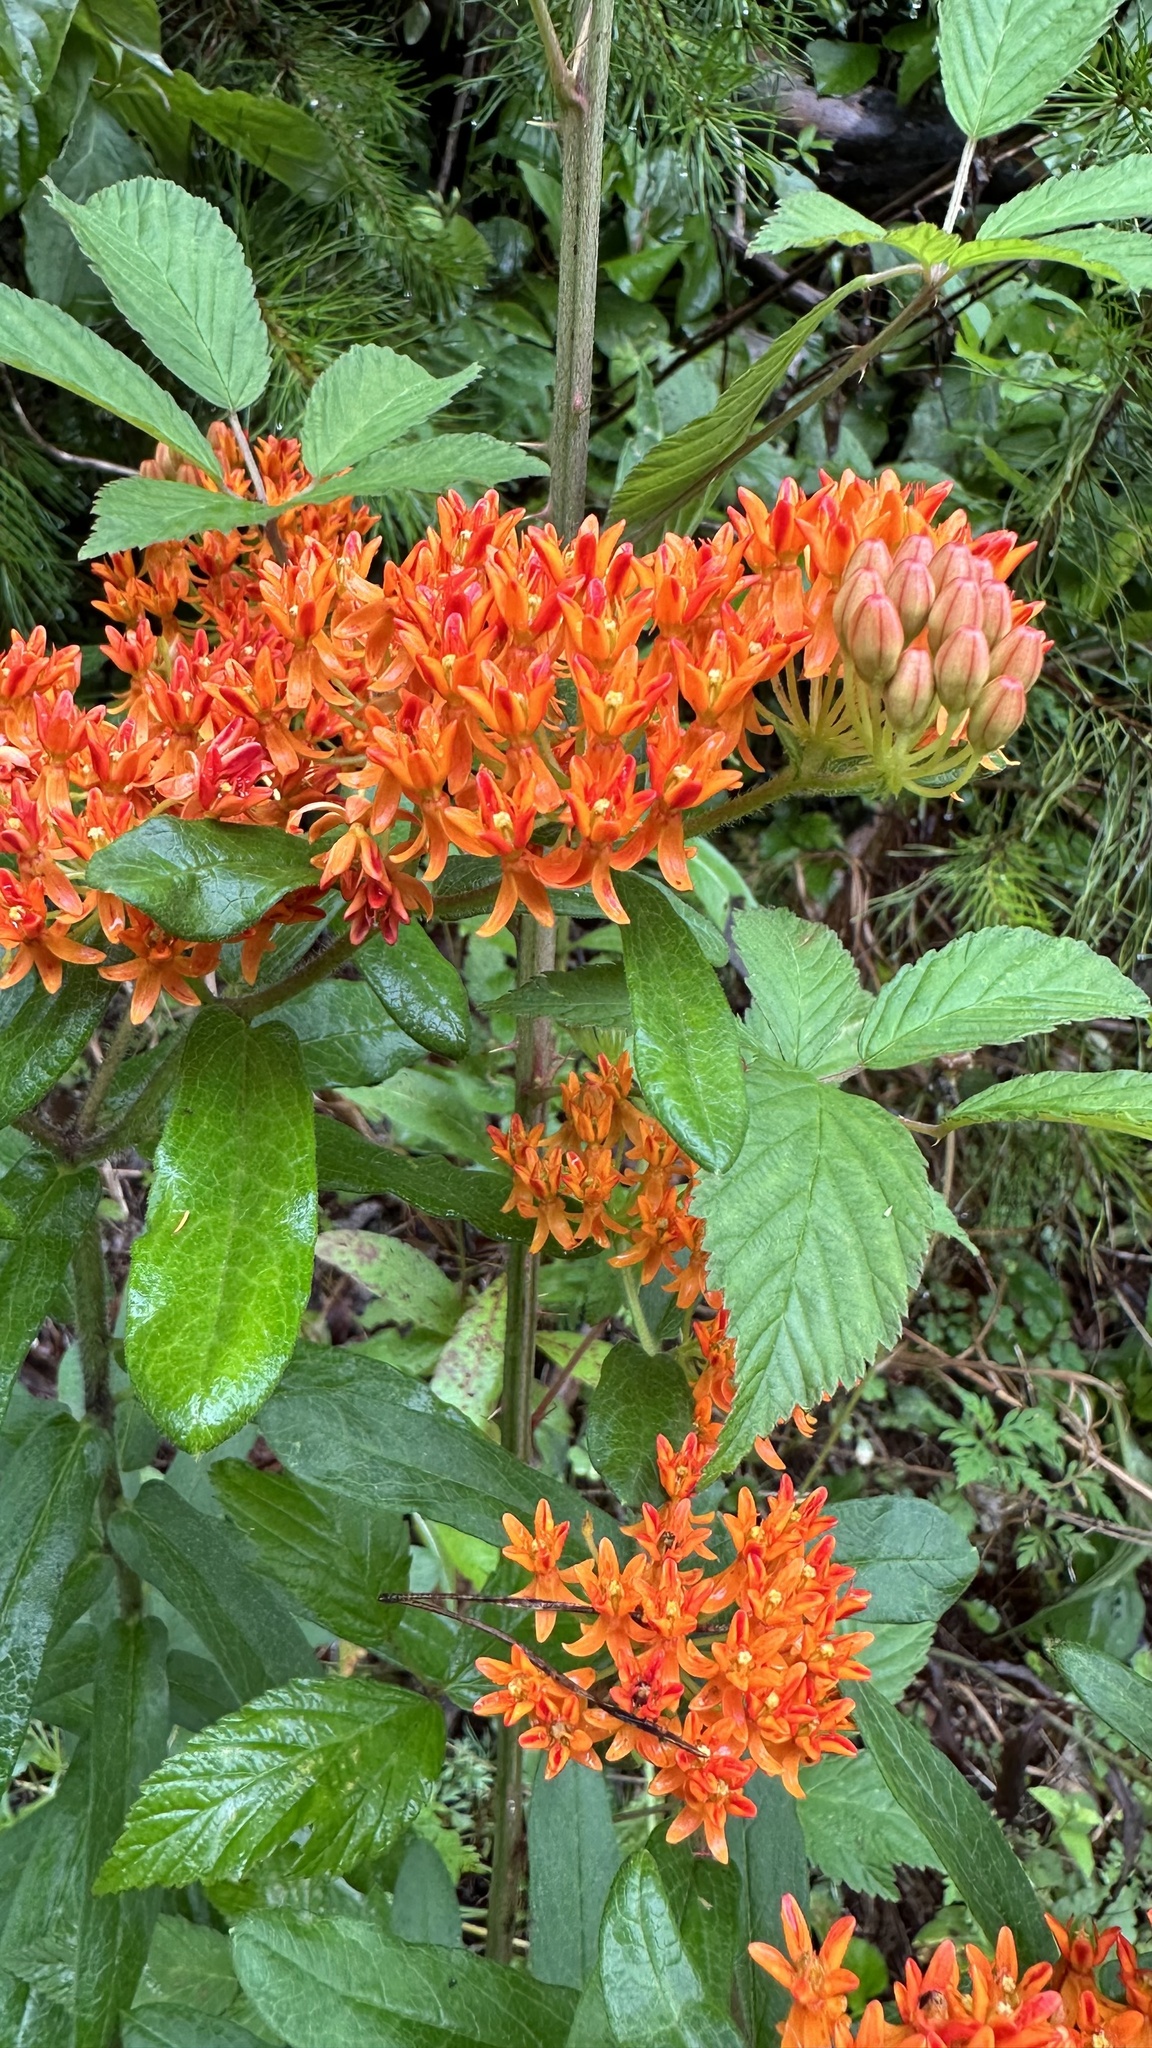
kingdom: Plantae
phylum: Tracheophyta
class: Magnoliopsida
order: Gentianales
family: Apocynaceae
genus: Asclepias
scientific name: Asclepias tuberosa
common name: Butterfly milkweed
